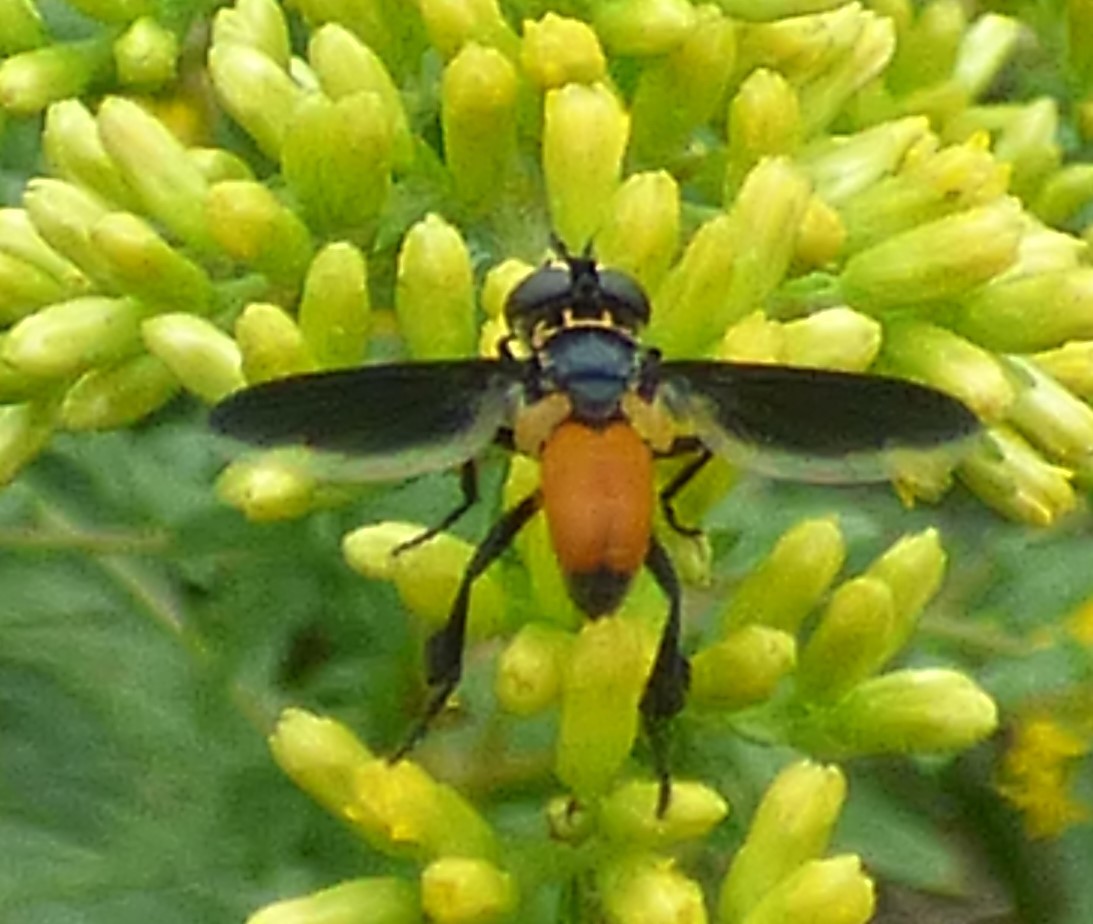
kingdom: Animalia
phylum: Arthropoda
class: Insecta
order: Diptera
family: Tachinidae
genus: Trichopoda
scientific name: Trichopoda pennipes
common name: Tachinid fly
